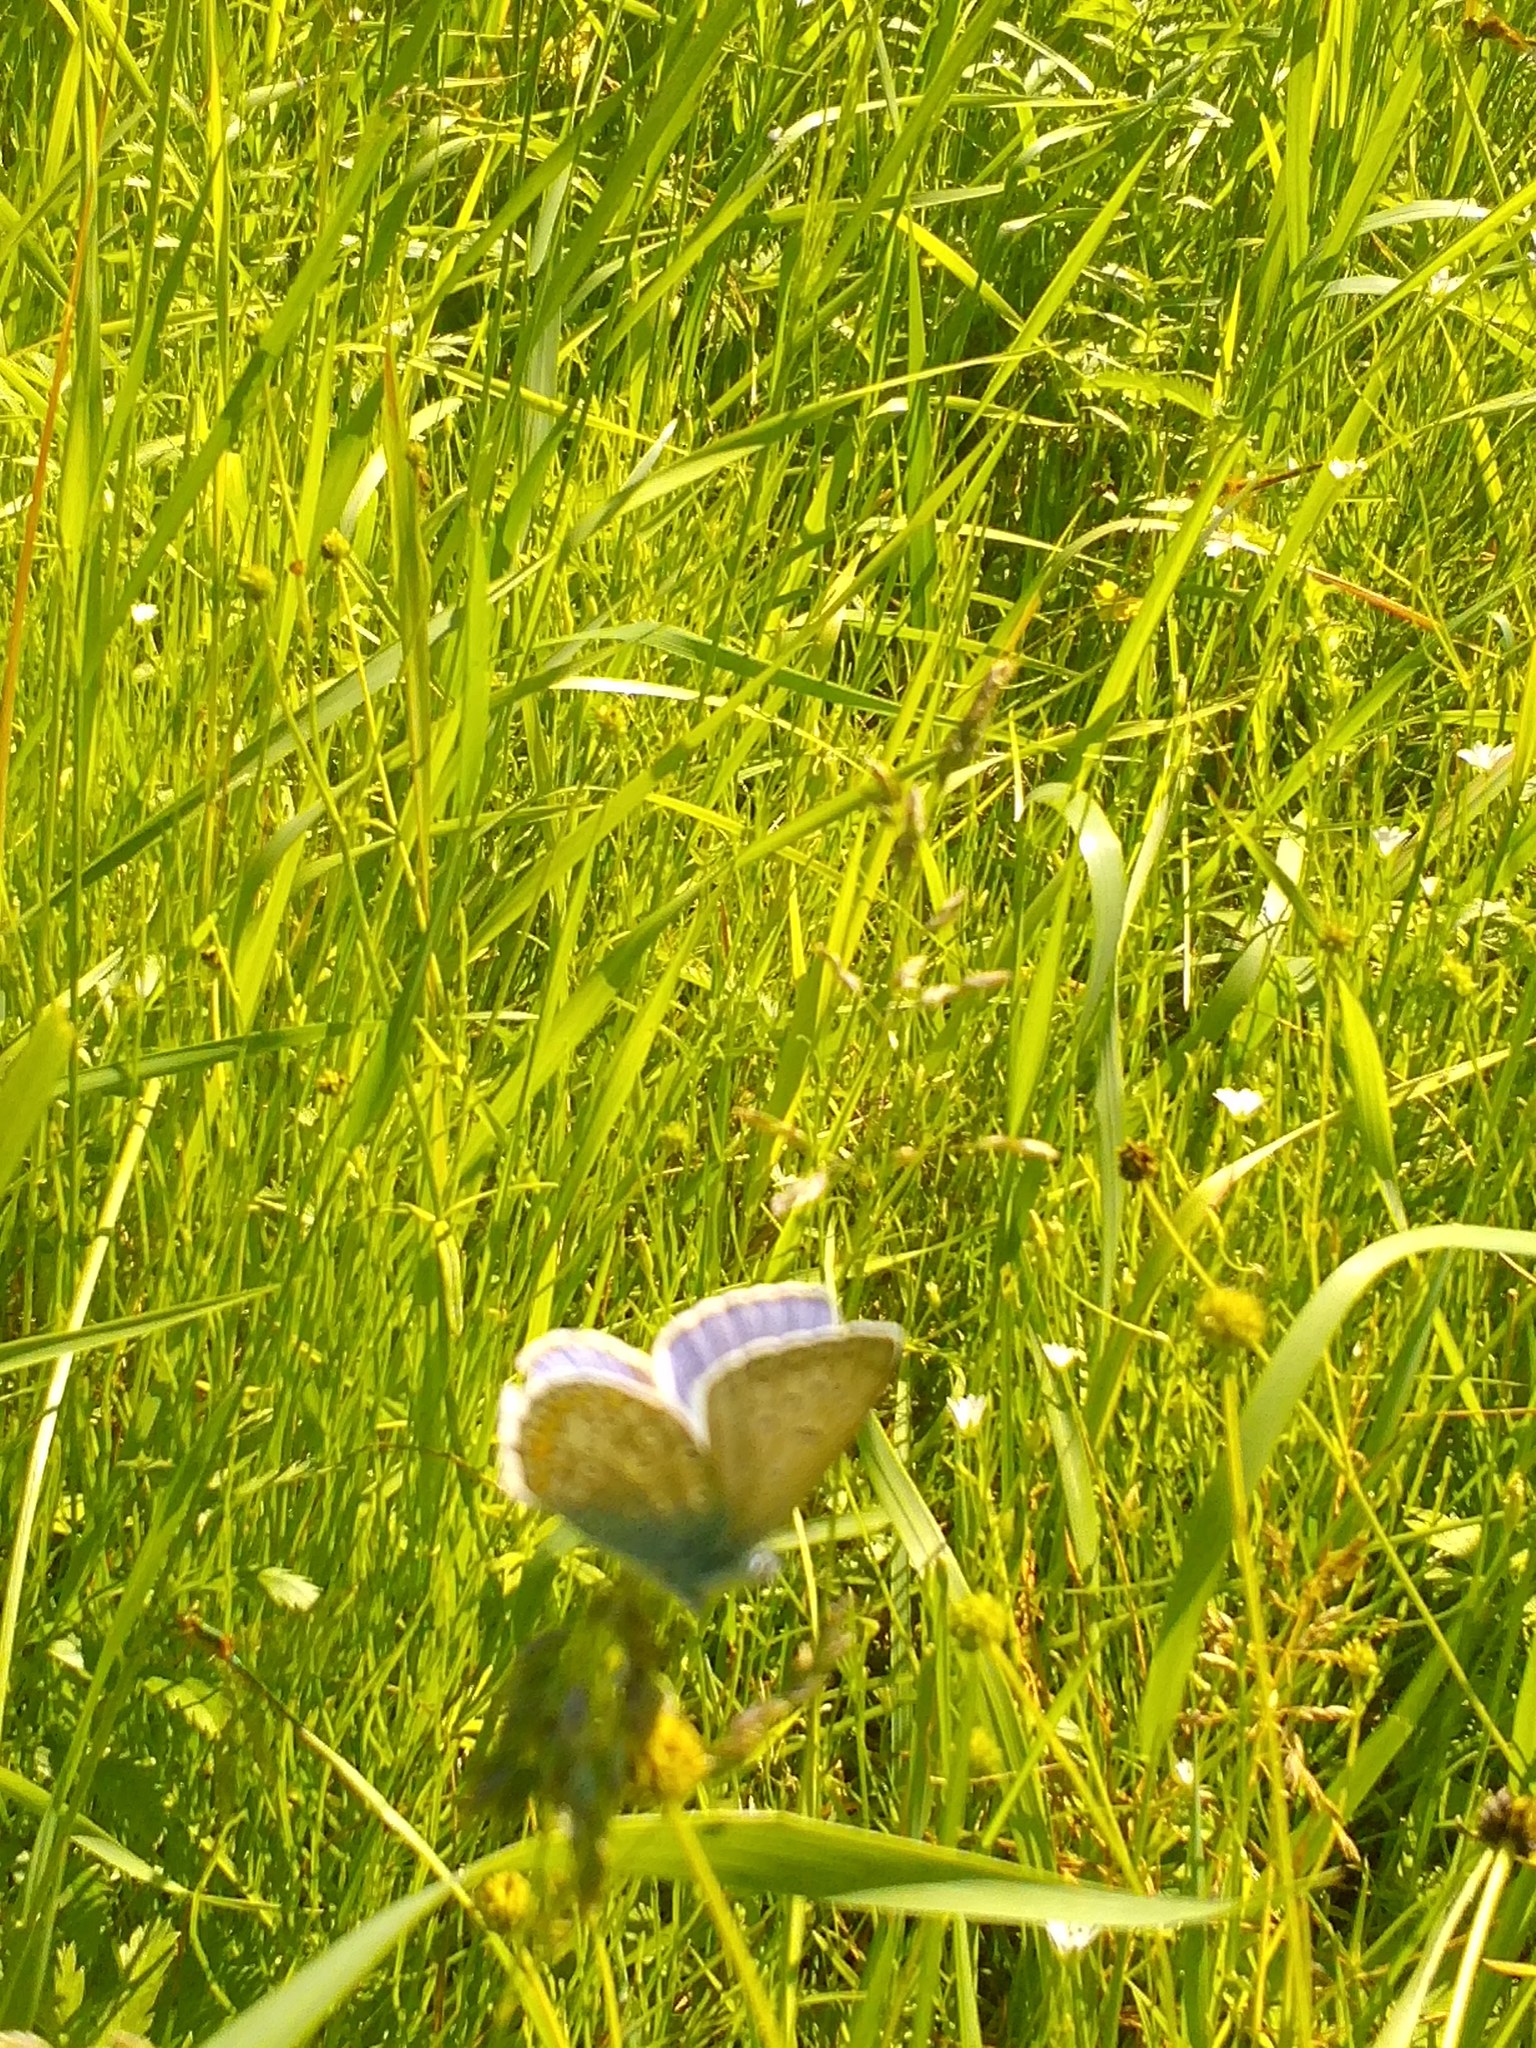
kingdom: Animalia
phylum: Arthropoda
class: Insecta
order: Lepidoptera
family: Lycaenidae
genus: Polyommatus
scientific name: Polyommatus icarus
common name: Common blue
